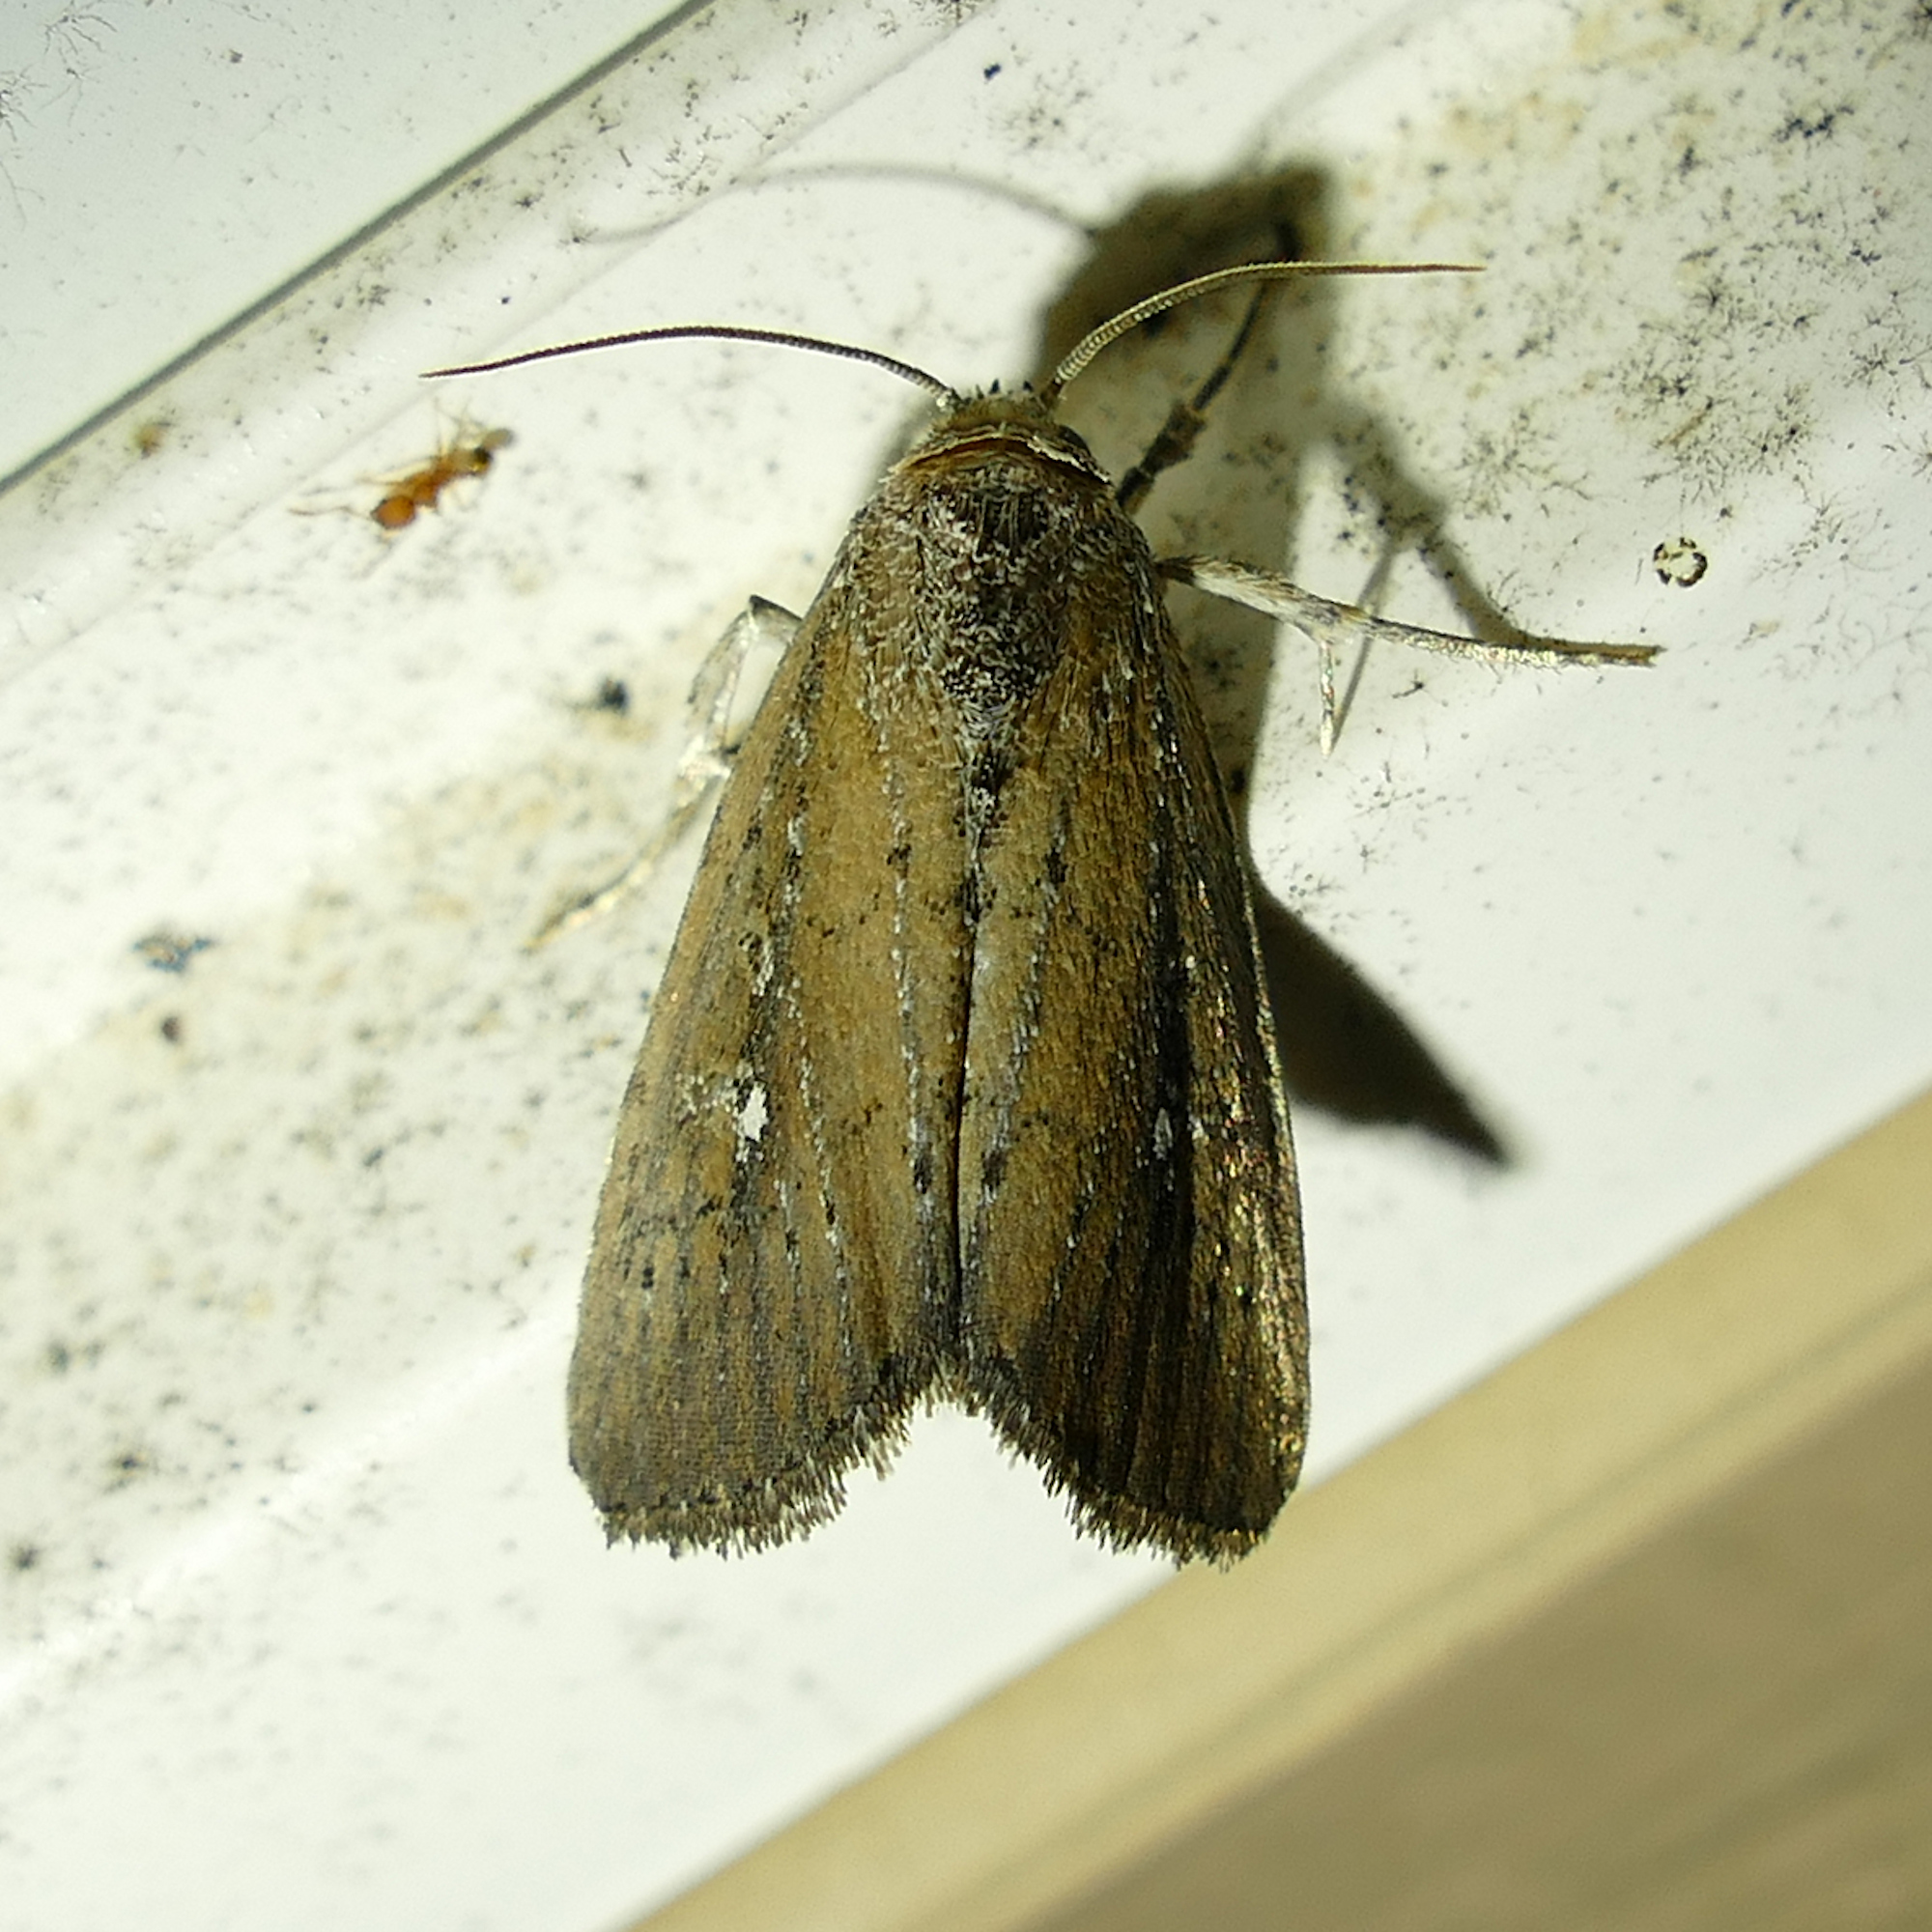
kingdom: Animalia
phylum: Arthropoda
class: Insecta
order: Lepidoptera
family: Noctuidae
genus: Condica
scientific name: Condica videns
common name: White-dotted groundling
